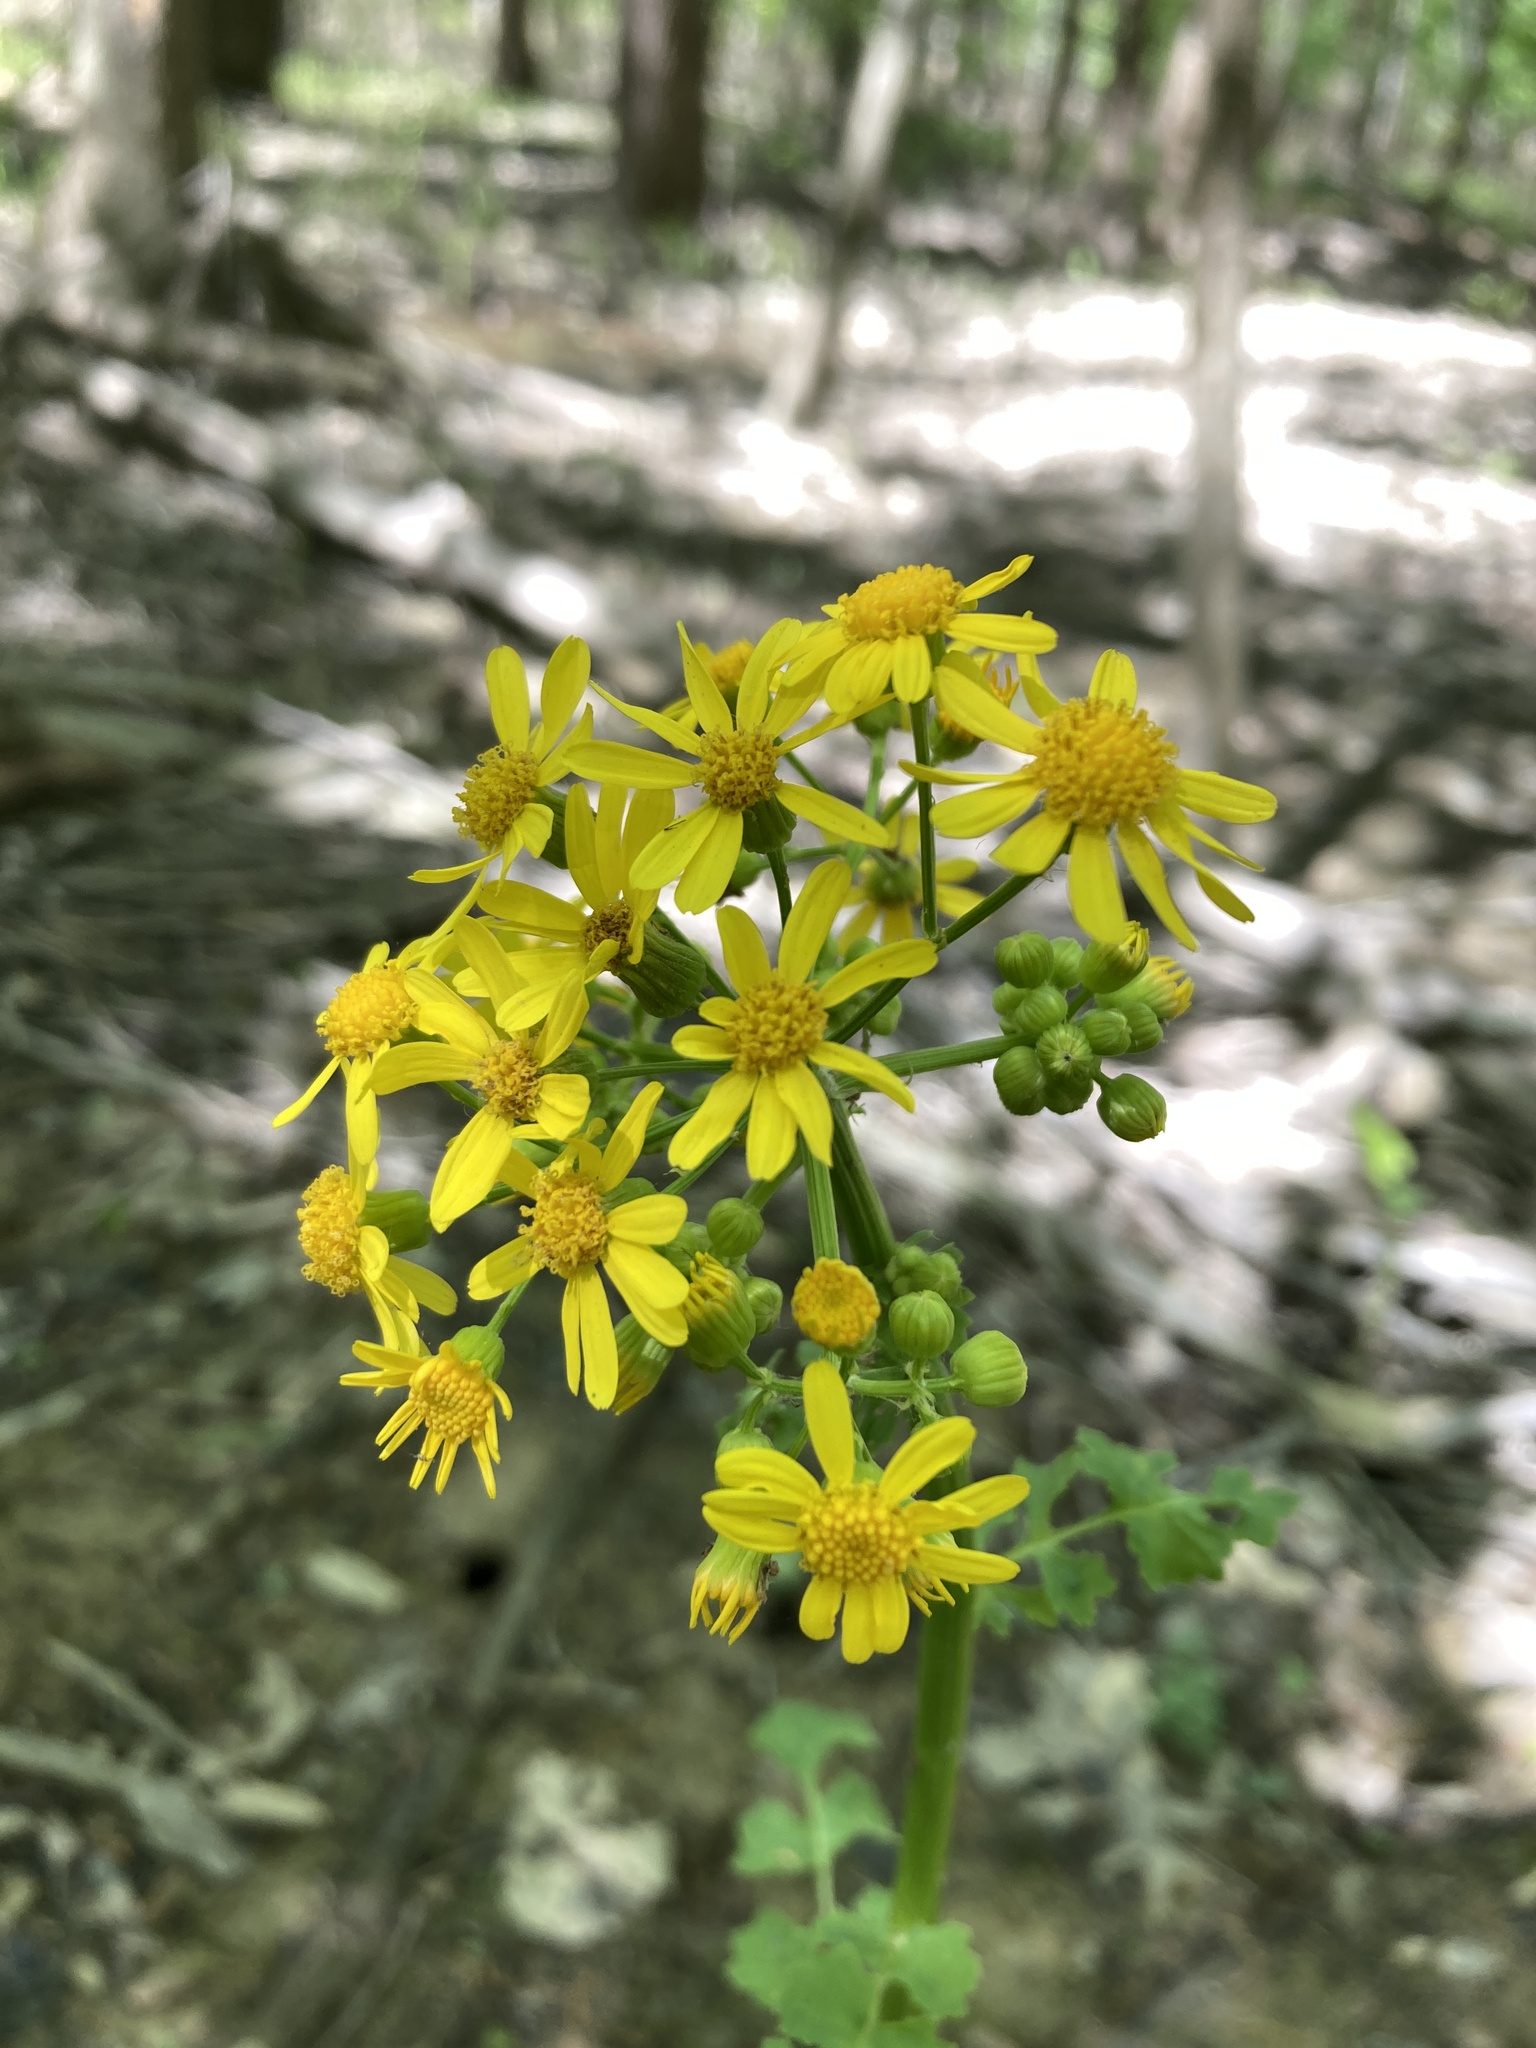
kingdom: Plantae
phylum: Tracheophyta
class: Magnoliopsida
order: Asterales
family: Asteraceae
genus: Packera
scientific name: Packera glabella
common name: Butterweed
